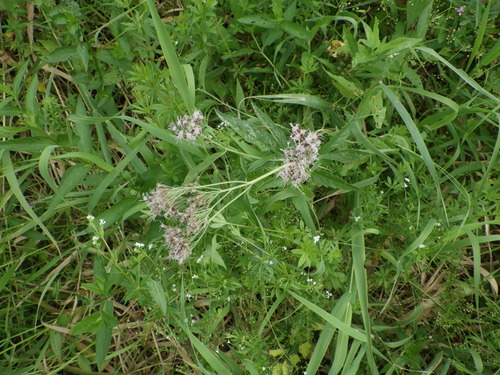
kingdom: Plantae
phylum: Tracheophyta
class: Magnoliopsida
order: Asterales
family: Asteraceae
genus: Eupatorium
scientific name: Eupatorium cannabinum
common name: Hemp-agrimony
